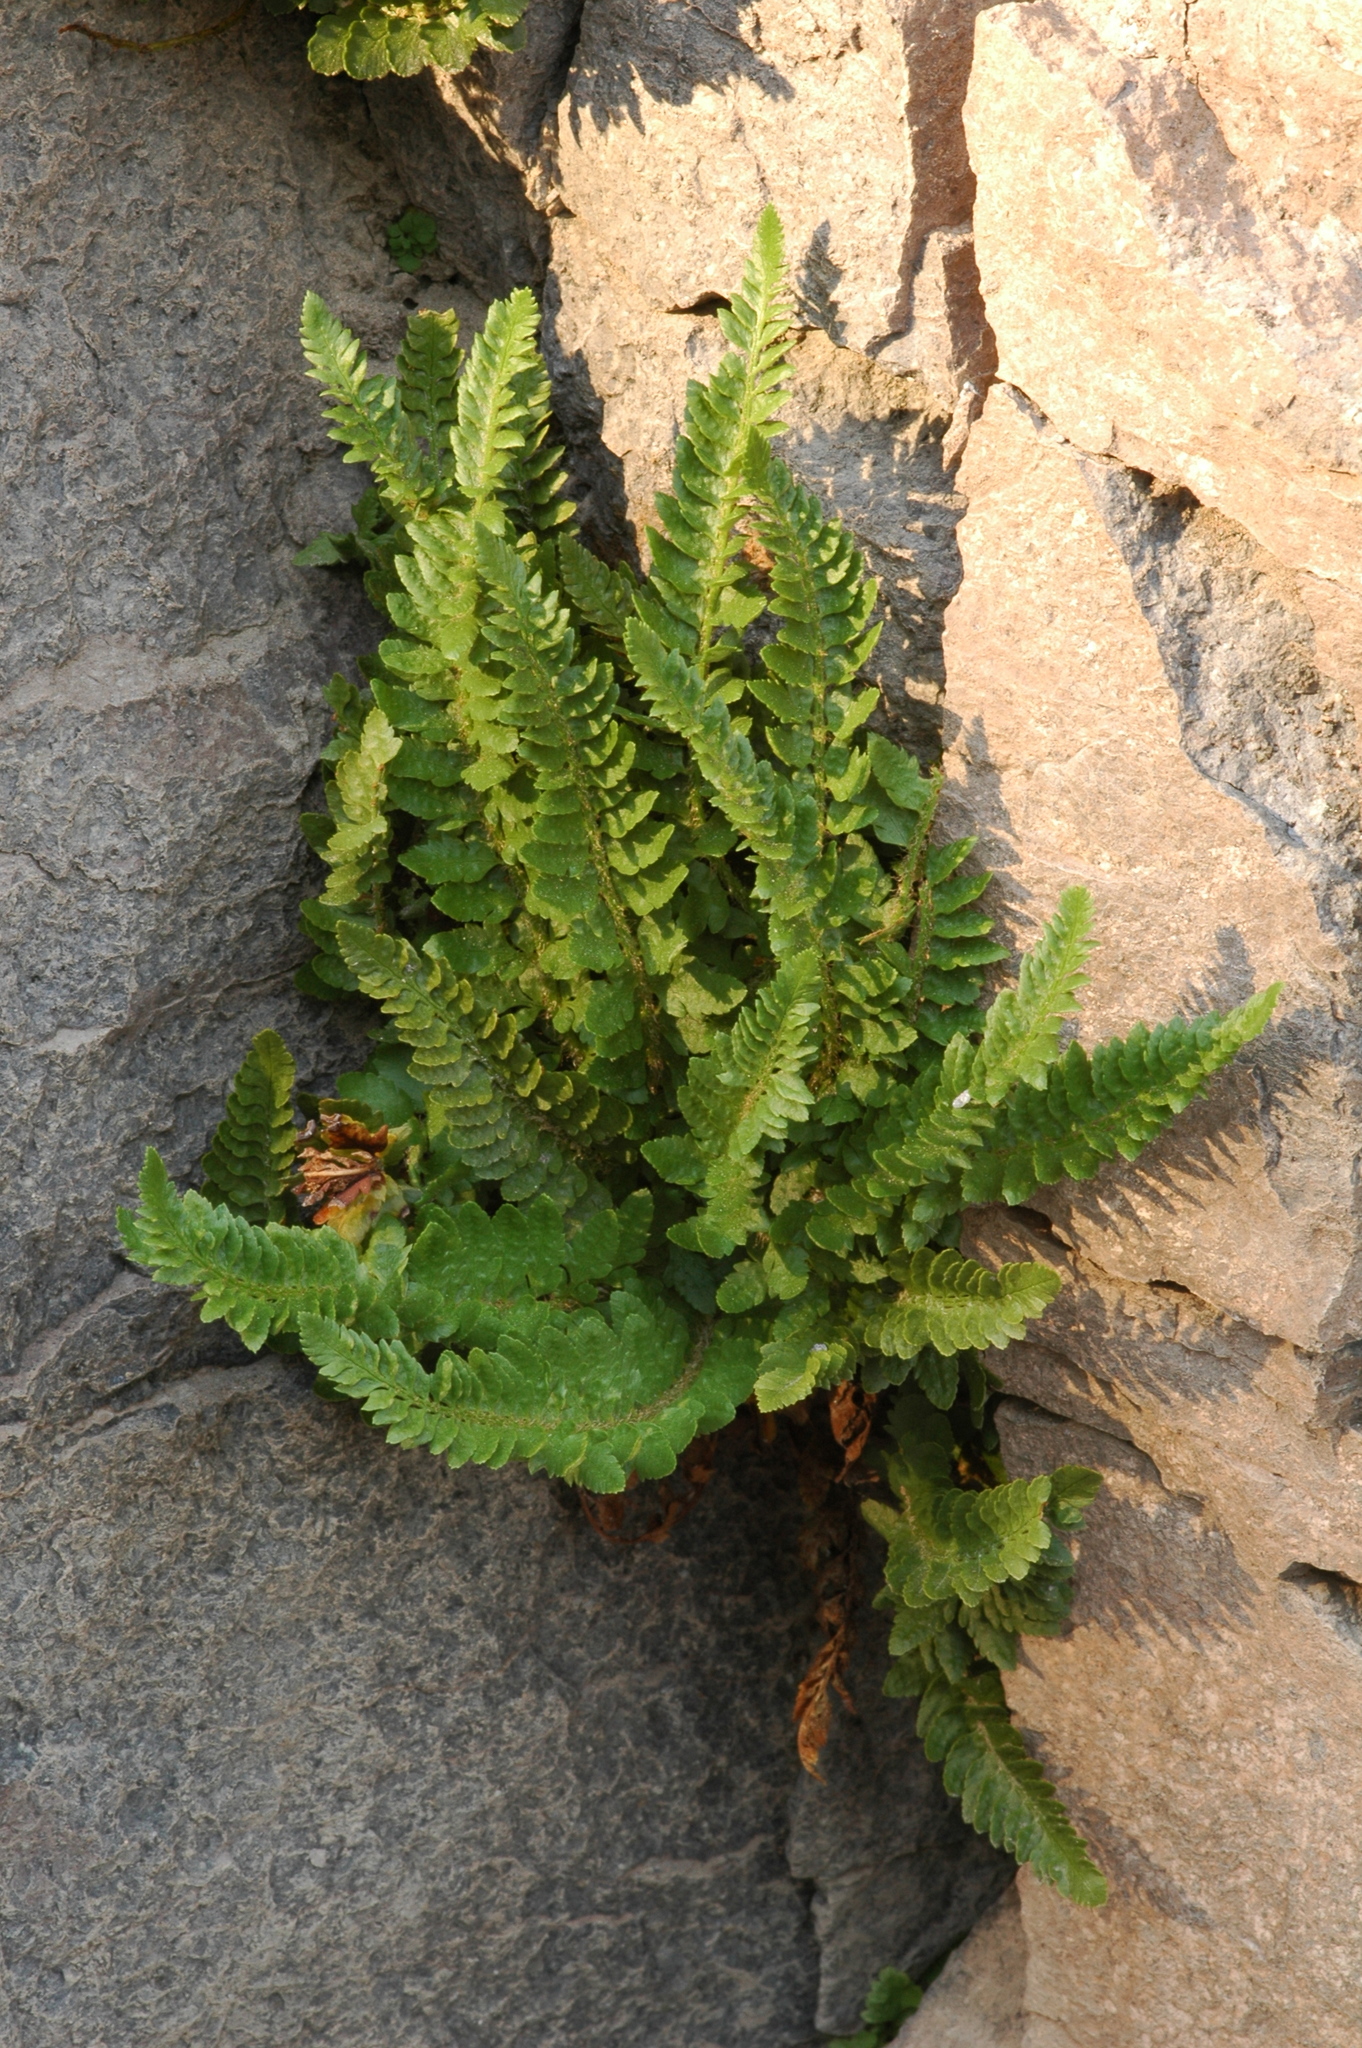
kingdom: Plantae
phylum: Tracheophyta
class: Polypodiopsida
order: Polypodiales
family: Dryopteridaceae
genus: Polystichum
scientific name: Polystichum scopulinum
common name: Eaton's shield fern
